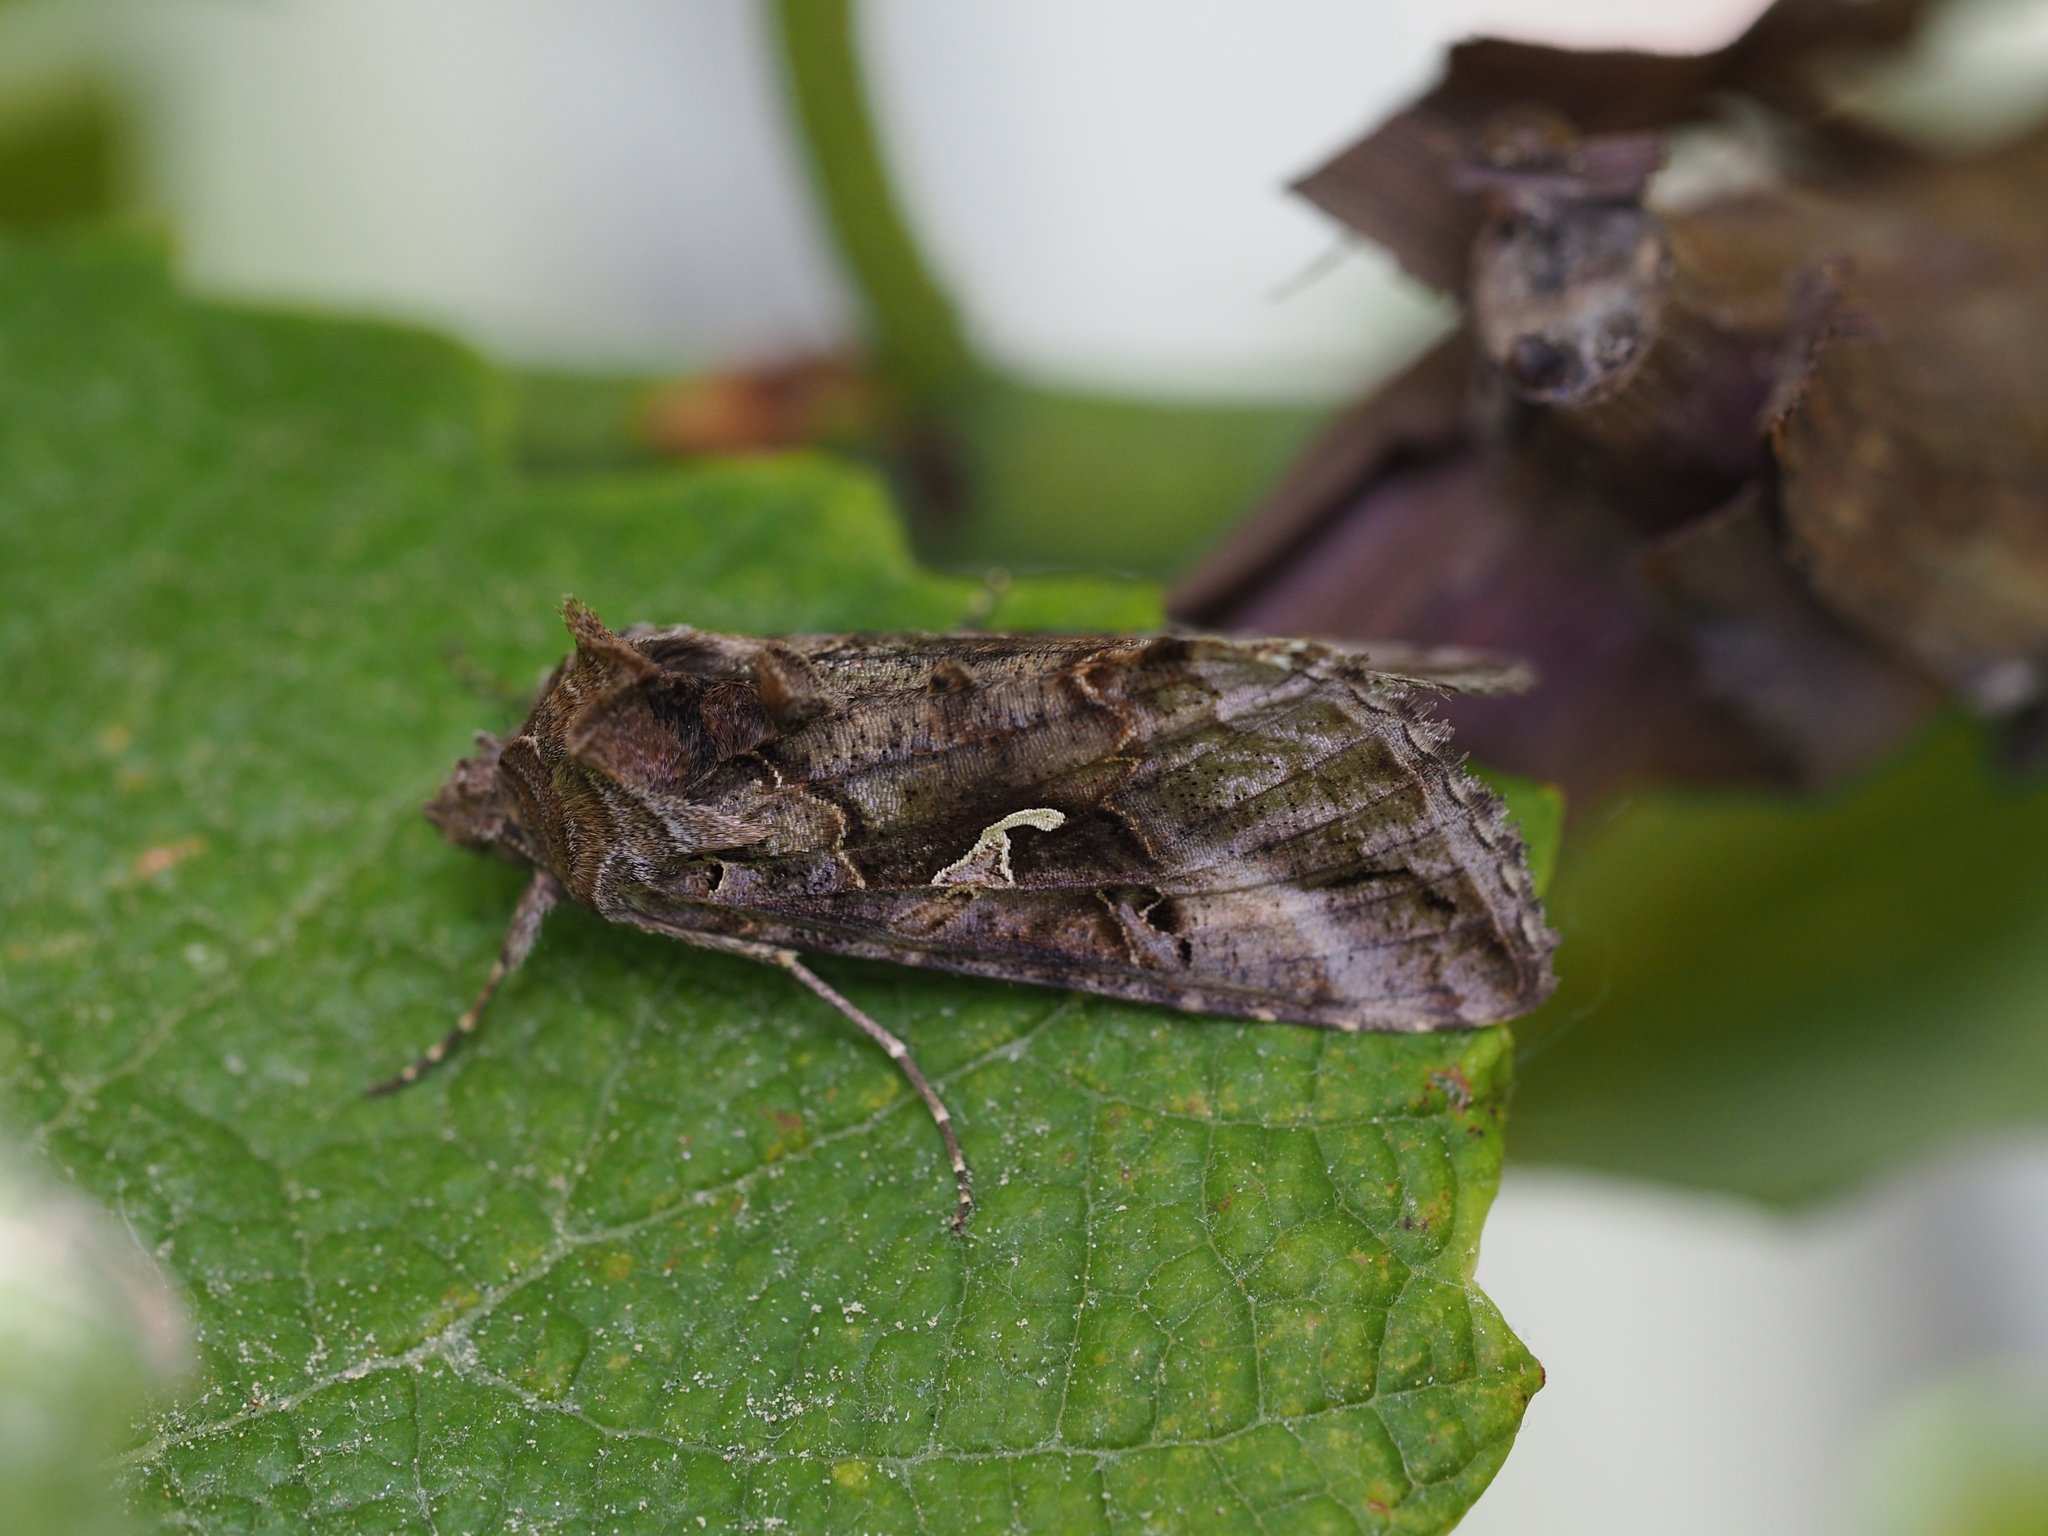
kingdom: Animalia
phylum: Arthropoda
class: Insecta
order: Lepidoptera
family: Noctuidae
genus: Autographa
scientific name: Autographa gamma
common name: Silver y
